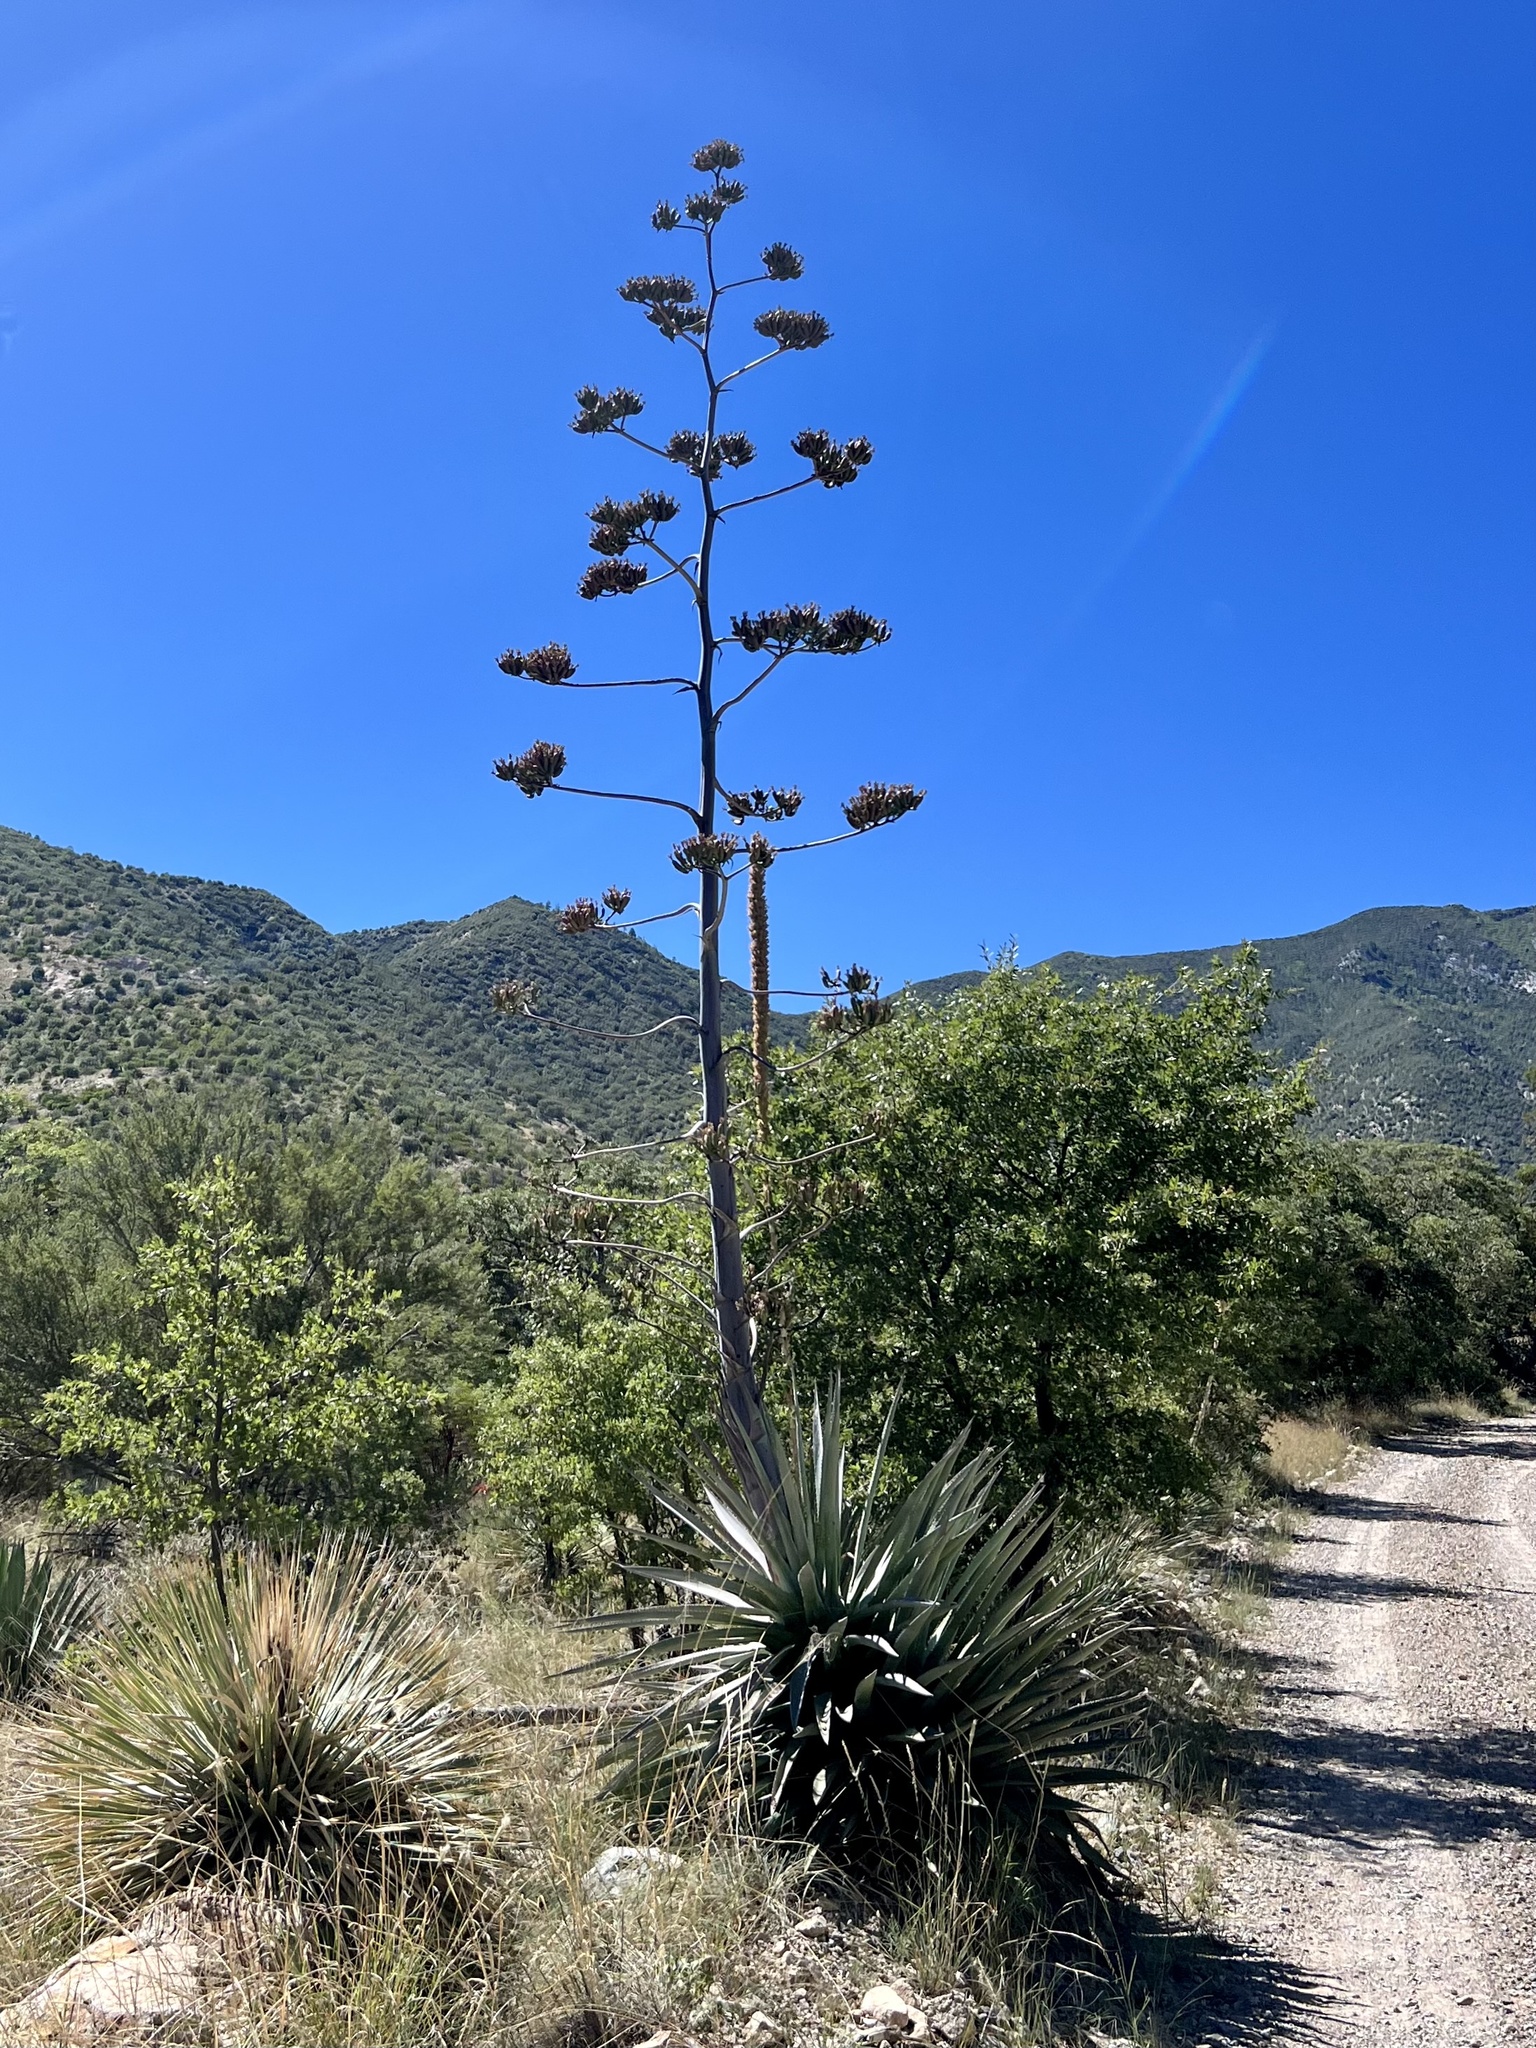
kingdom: Plantae
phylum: Tracheophyta
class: Liliopsida
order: Asparagales
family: Asparagaceae
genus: Agave
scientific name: Agave palmeri
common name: Palmer agave
